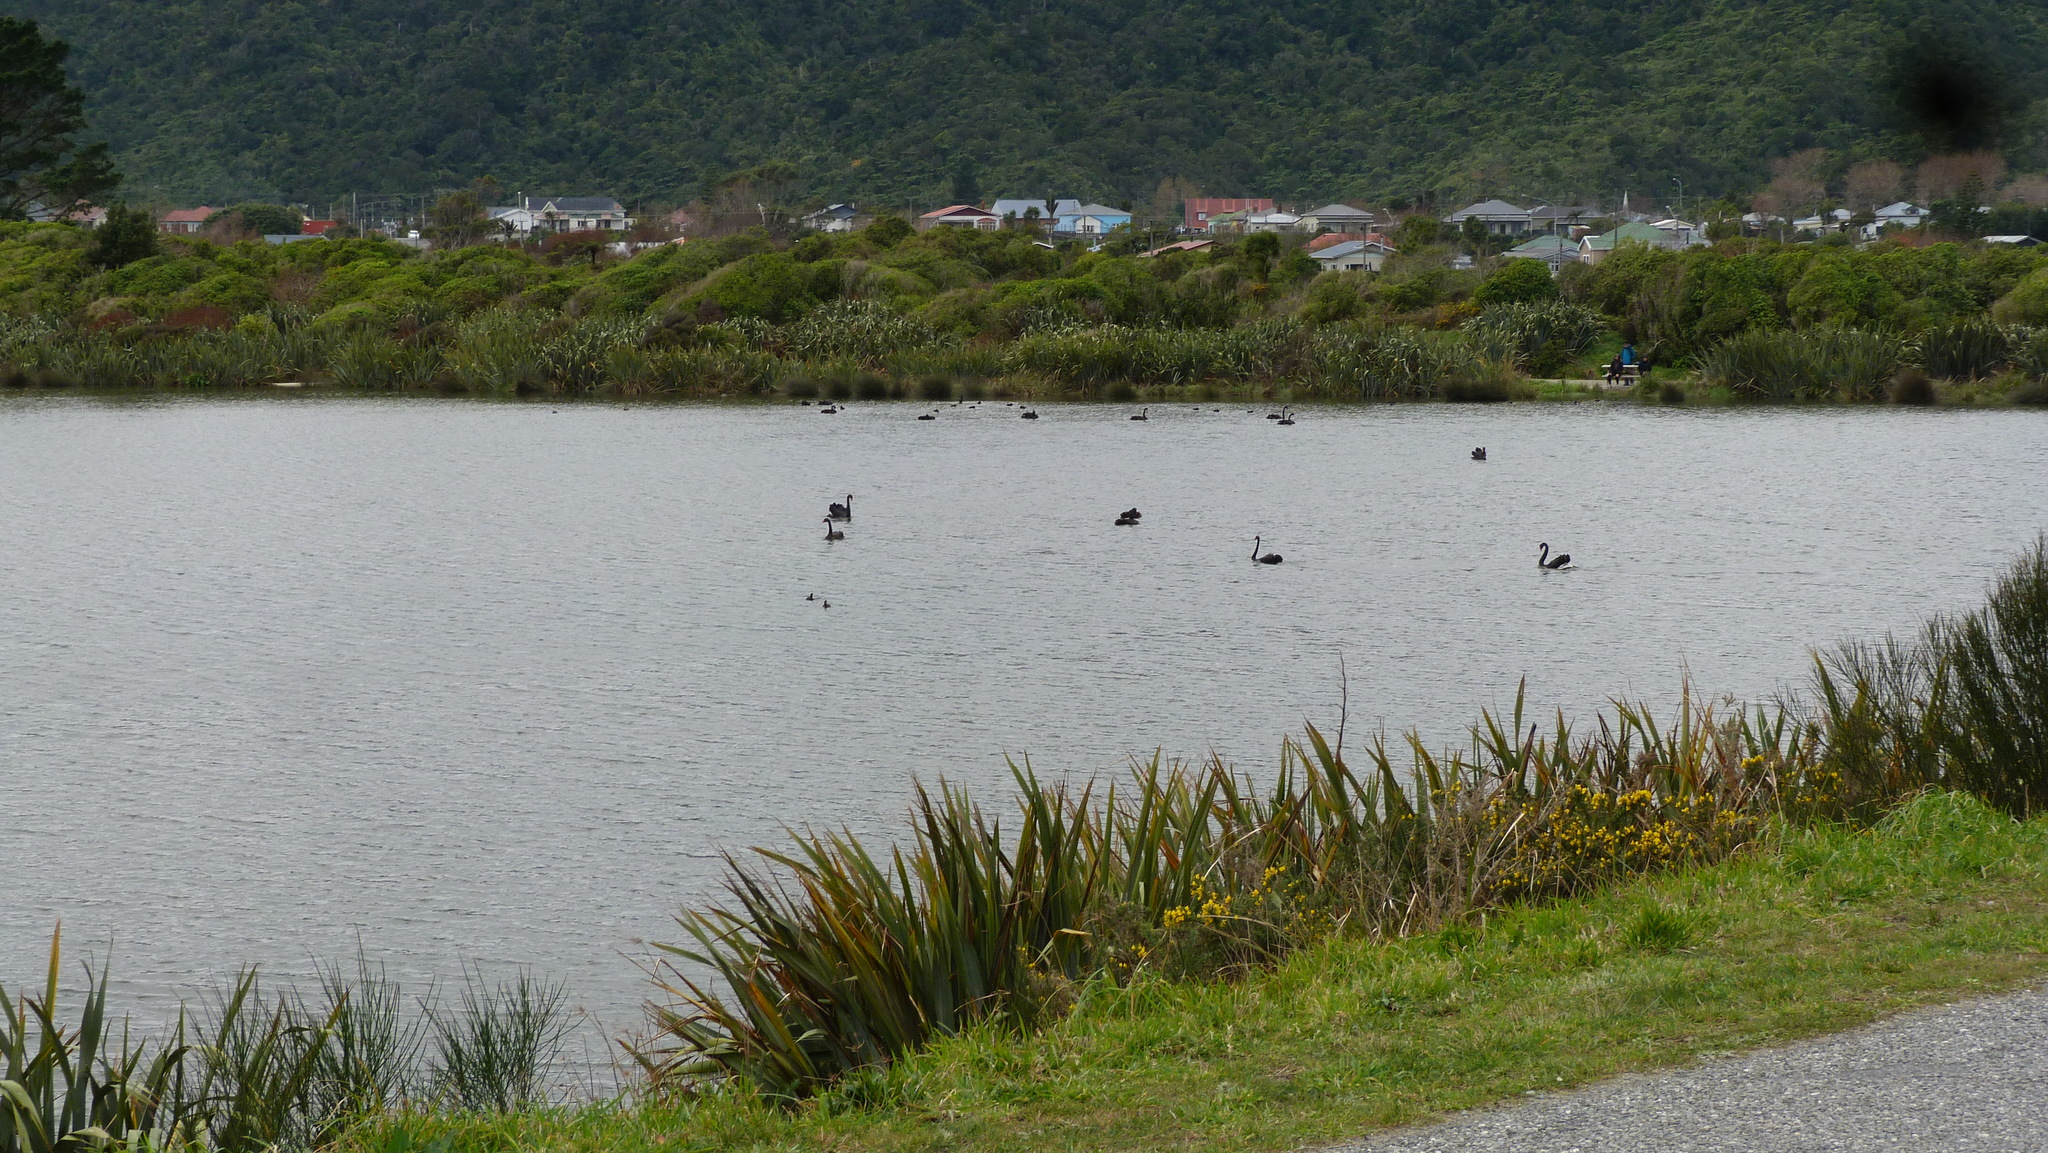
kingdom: Animalia
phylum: Chordata
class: Aves
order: Anseriformes
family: Anatidae
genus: Cygnus
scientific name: Cygnus atratus
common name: Black swan
